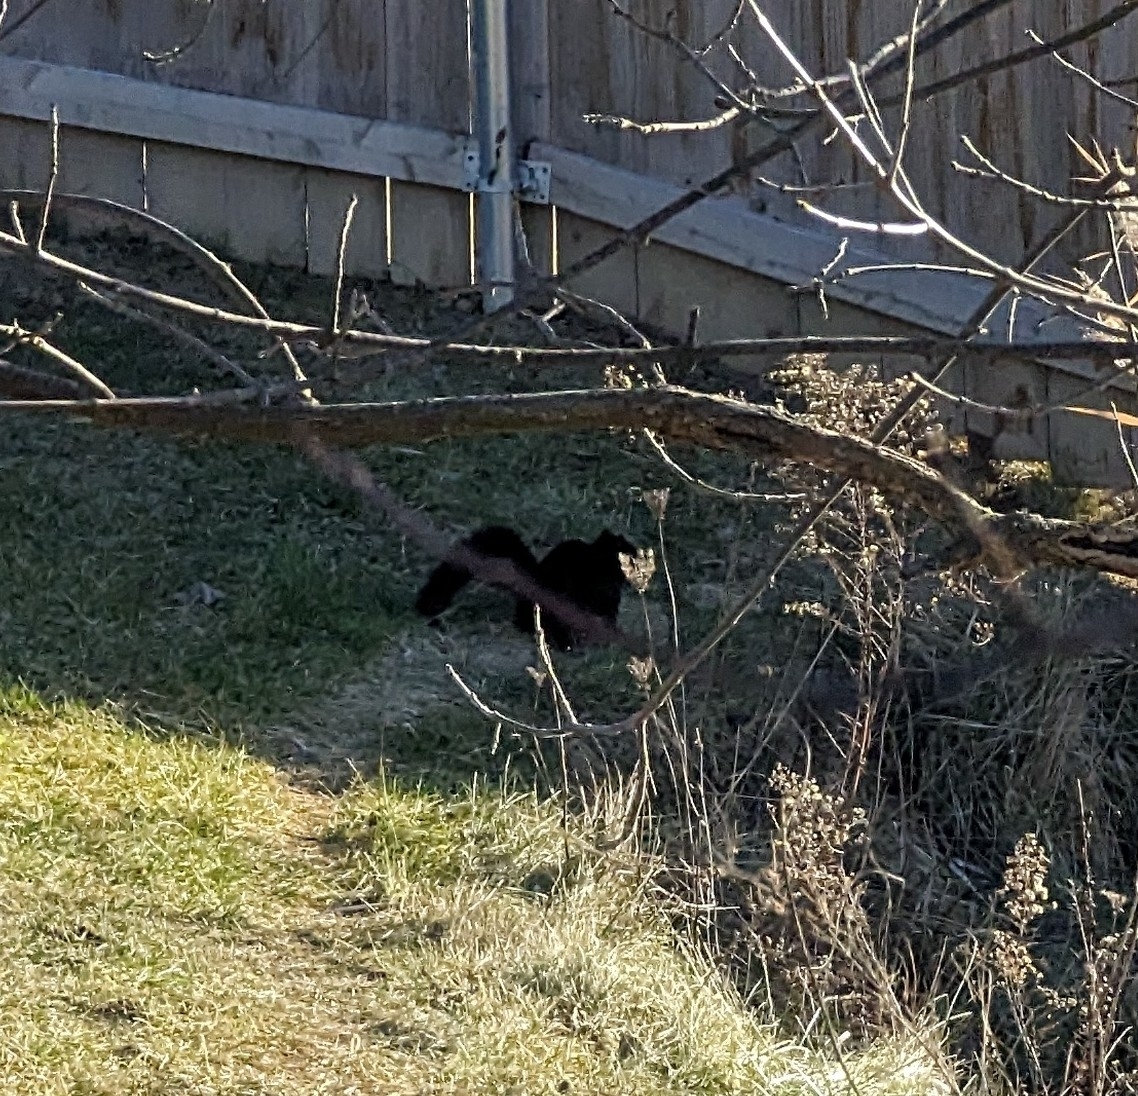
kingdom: Animalia
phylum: Chordata
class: Mammalia
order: Rodentia
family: Sciuridae
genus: Sciurus
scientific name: Sciurus carolinensis
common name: Eastern gray squirrel
